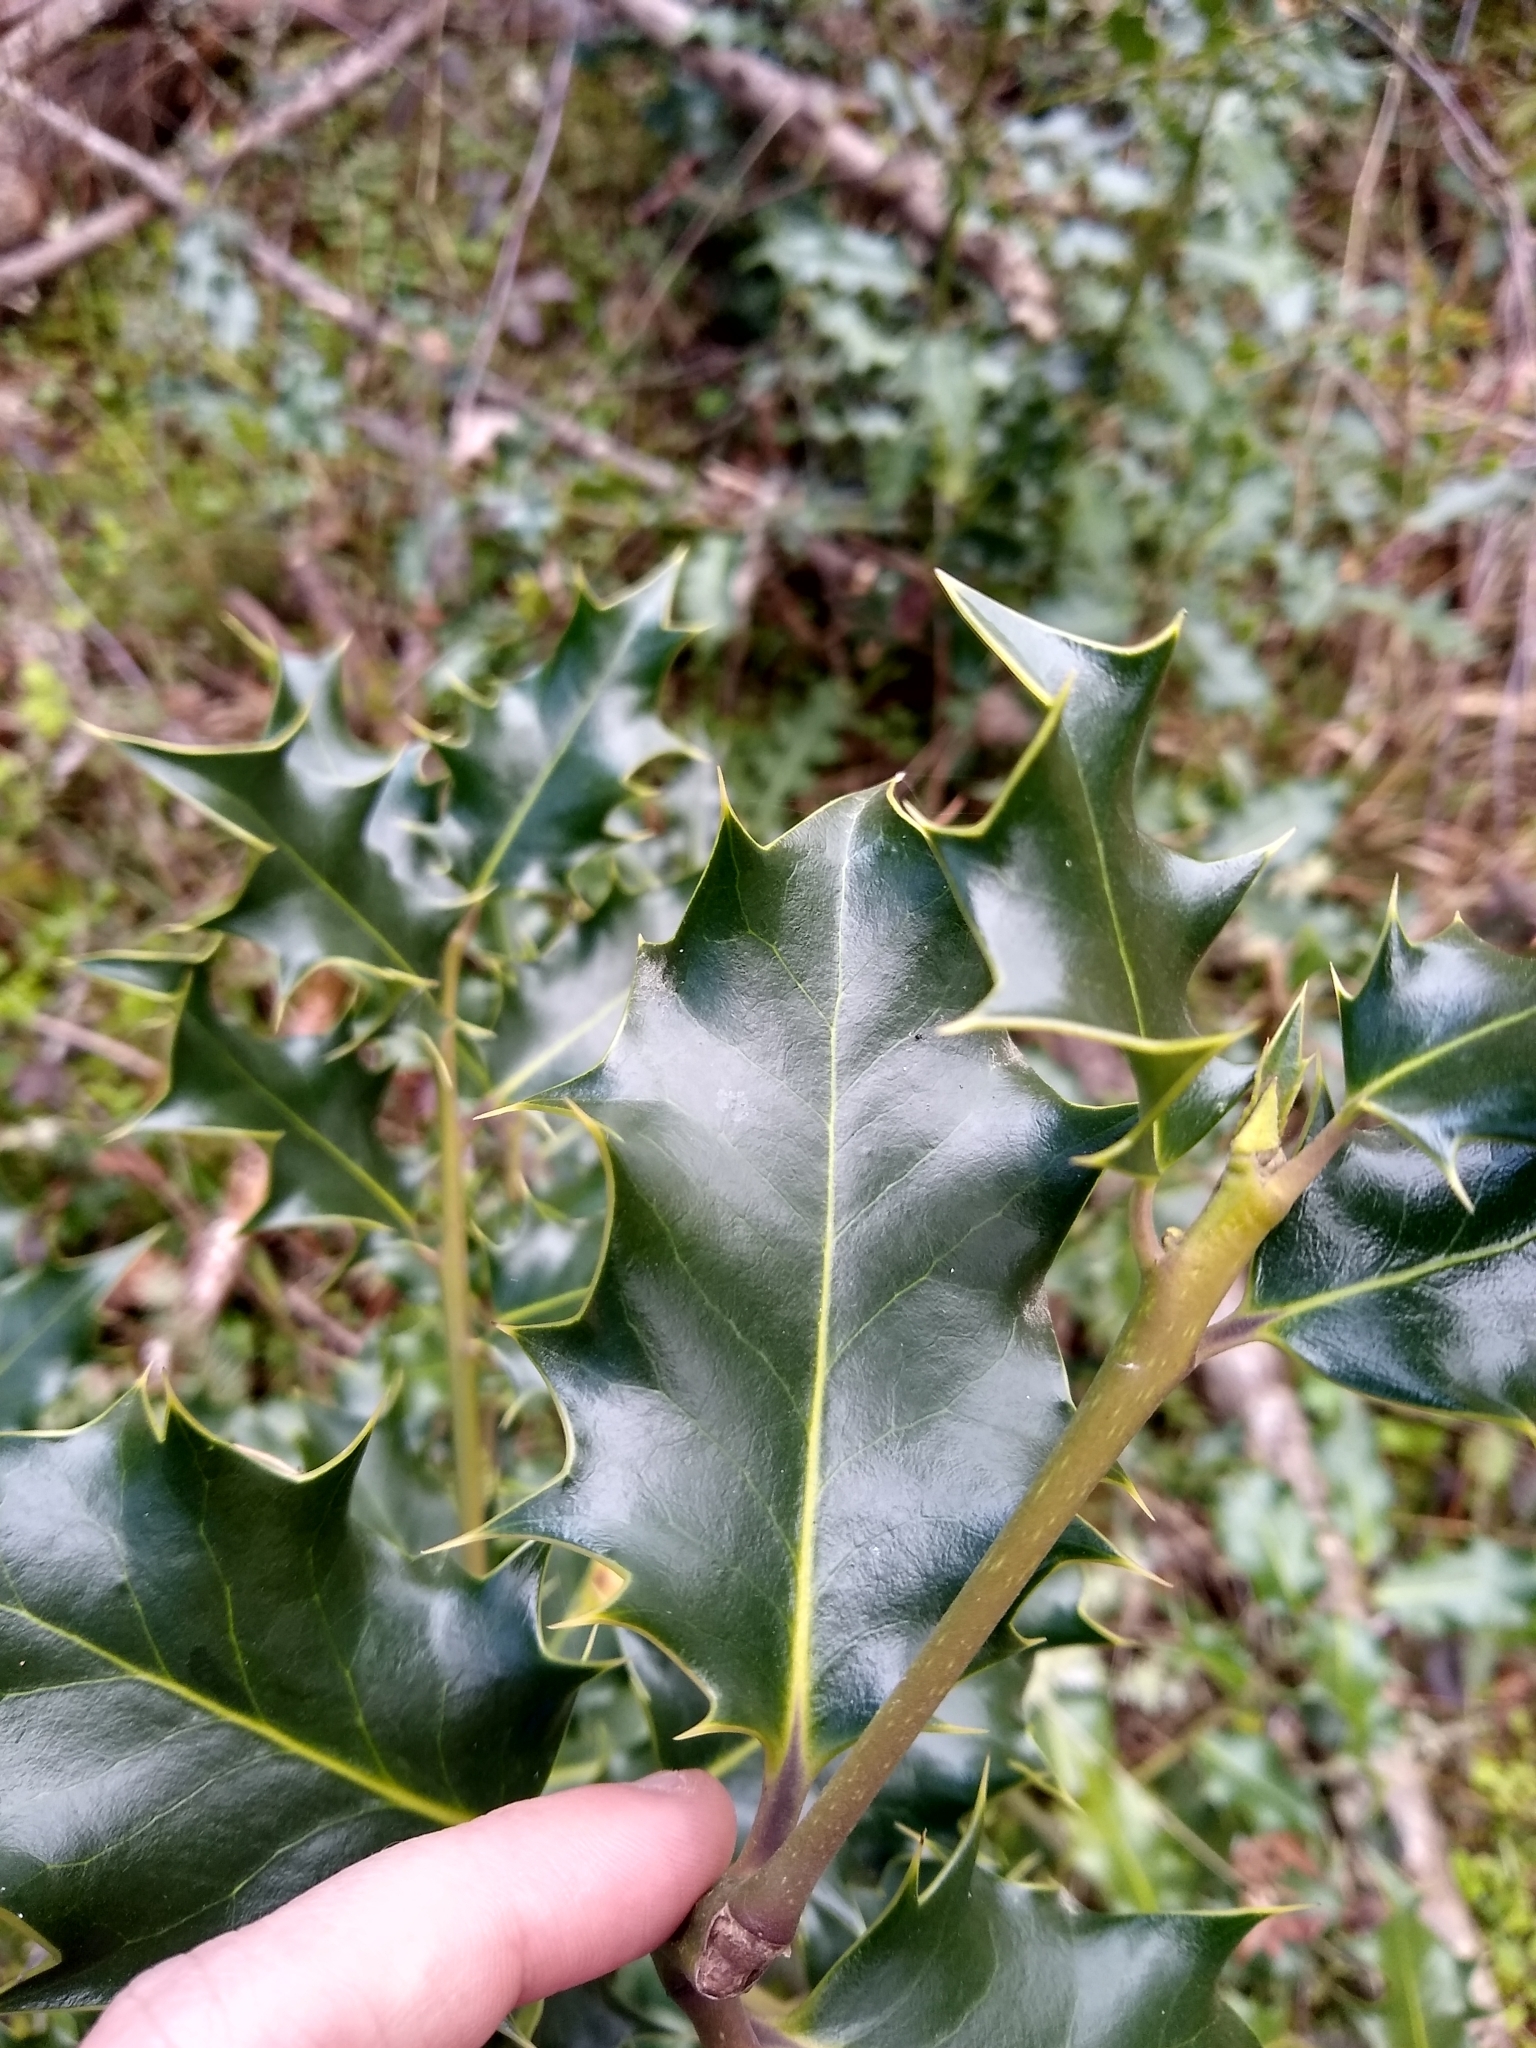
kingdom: Plantae
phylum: Tracheophyta
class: Magnoliopsida
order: Aquifoliales
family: Aquifoliaceae
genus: Ilex
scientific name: Ilex aquifolium
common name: English holly
